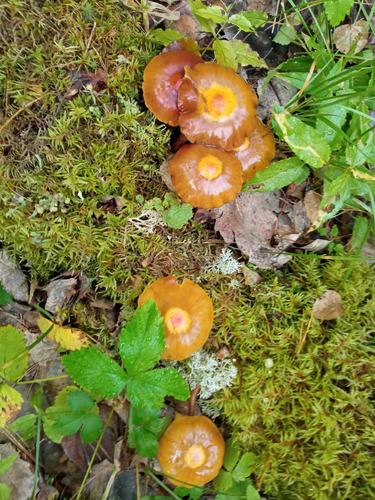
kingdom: Fungi
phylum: Basidiomycota
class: Agaricomycetes
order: Agaricales
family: Strophariaceae
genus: Kuehneromyces
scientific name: Kuehneromyces mutabilis
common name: Sheathed woodtuft
